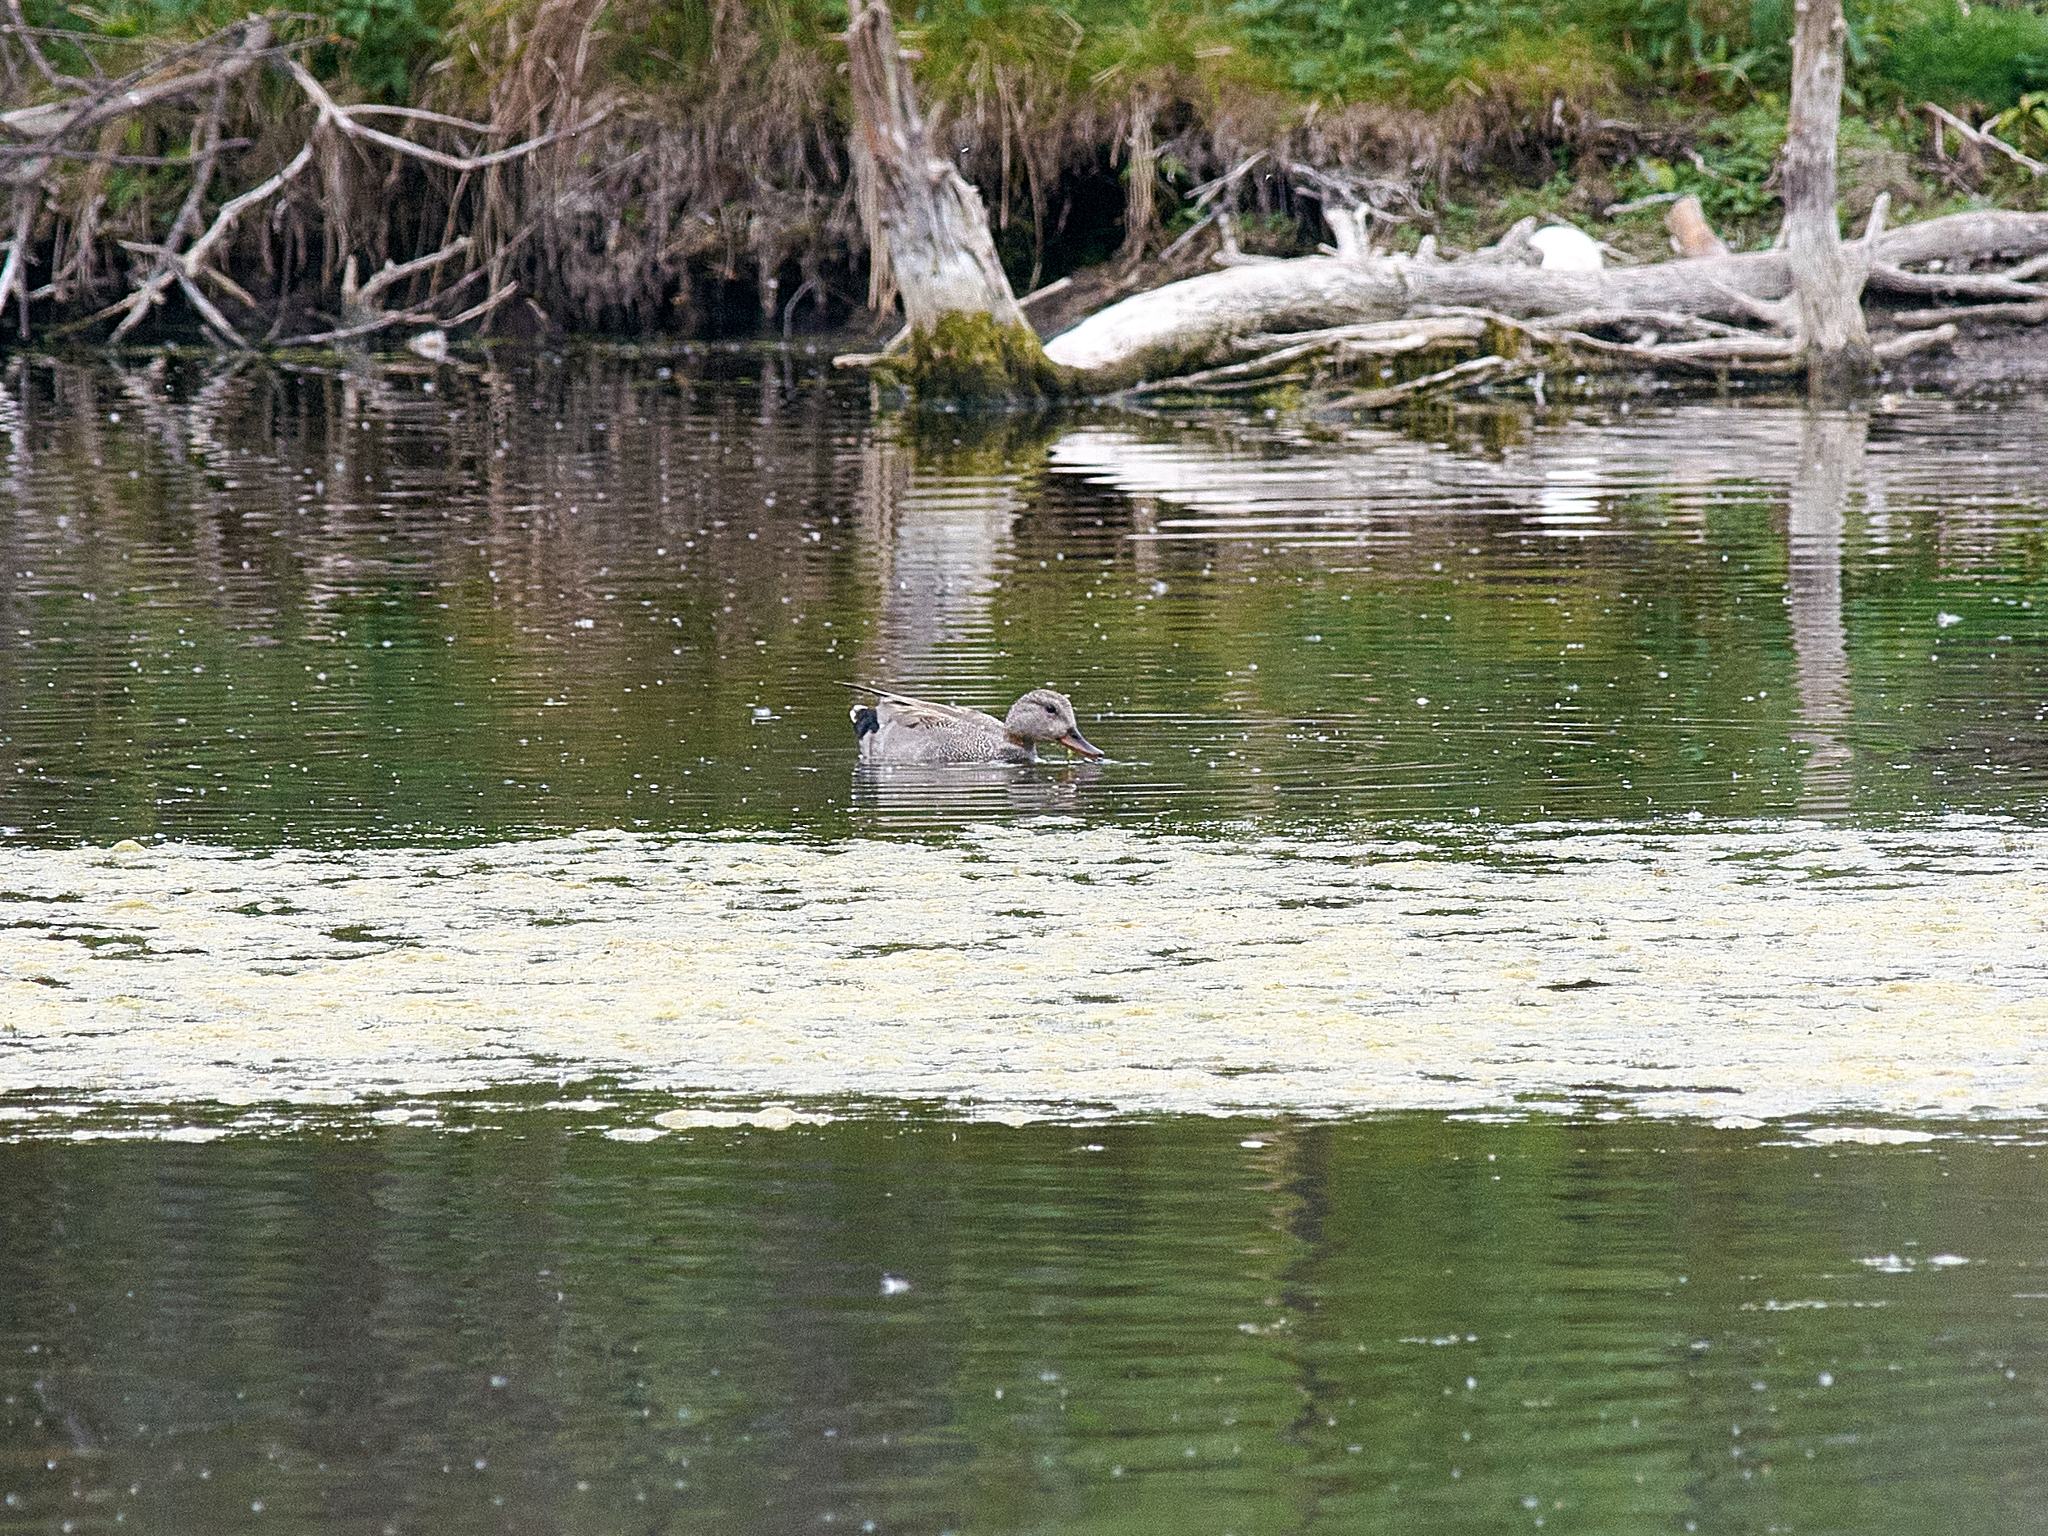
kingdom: Animalia
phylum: Chordata
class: Aves
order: Anseriformes
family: Anatidae
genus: Mareca
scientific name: Mareca strepera
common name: Gadwall
